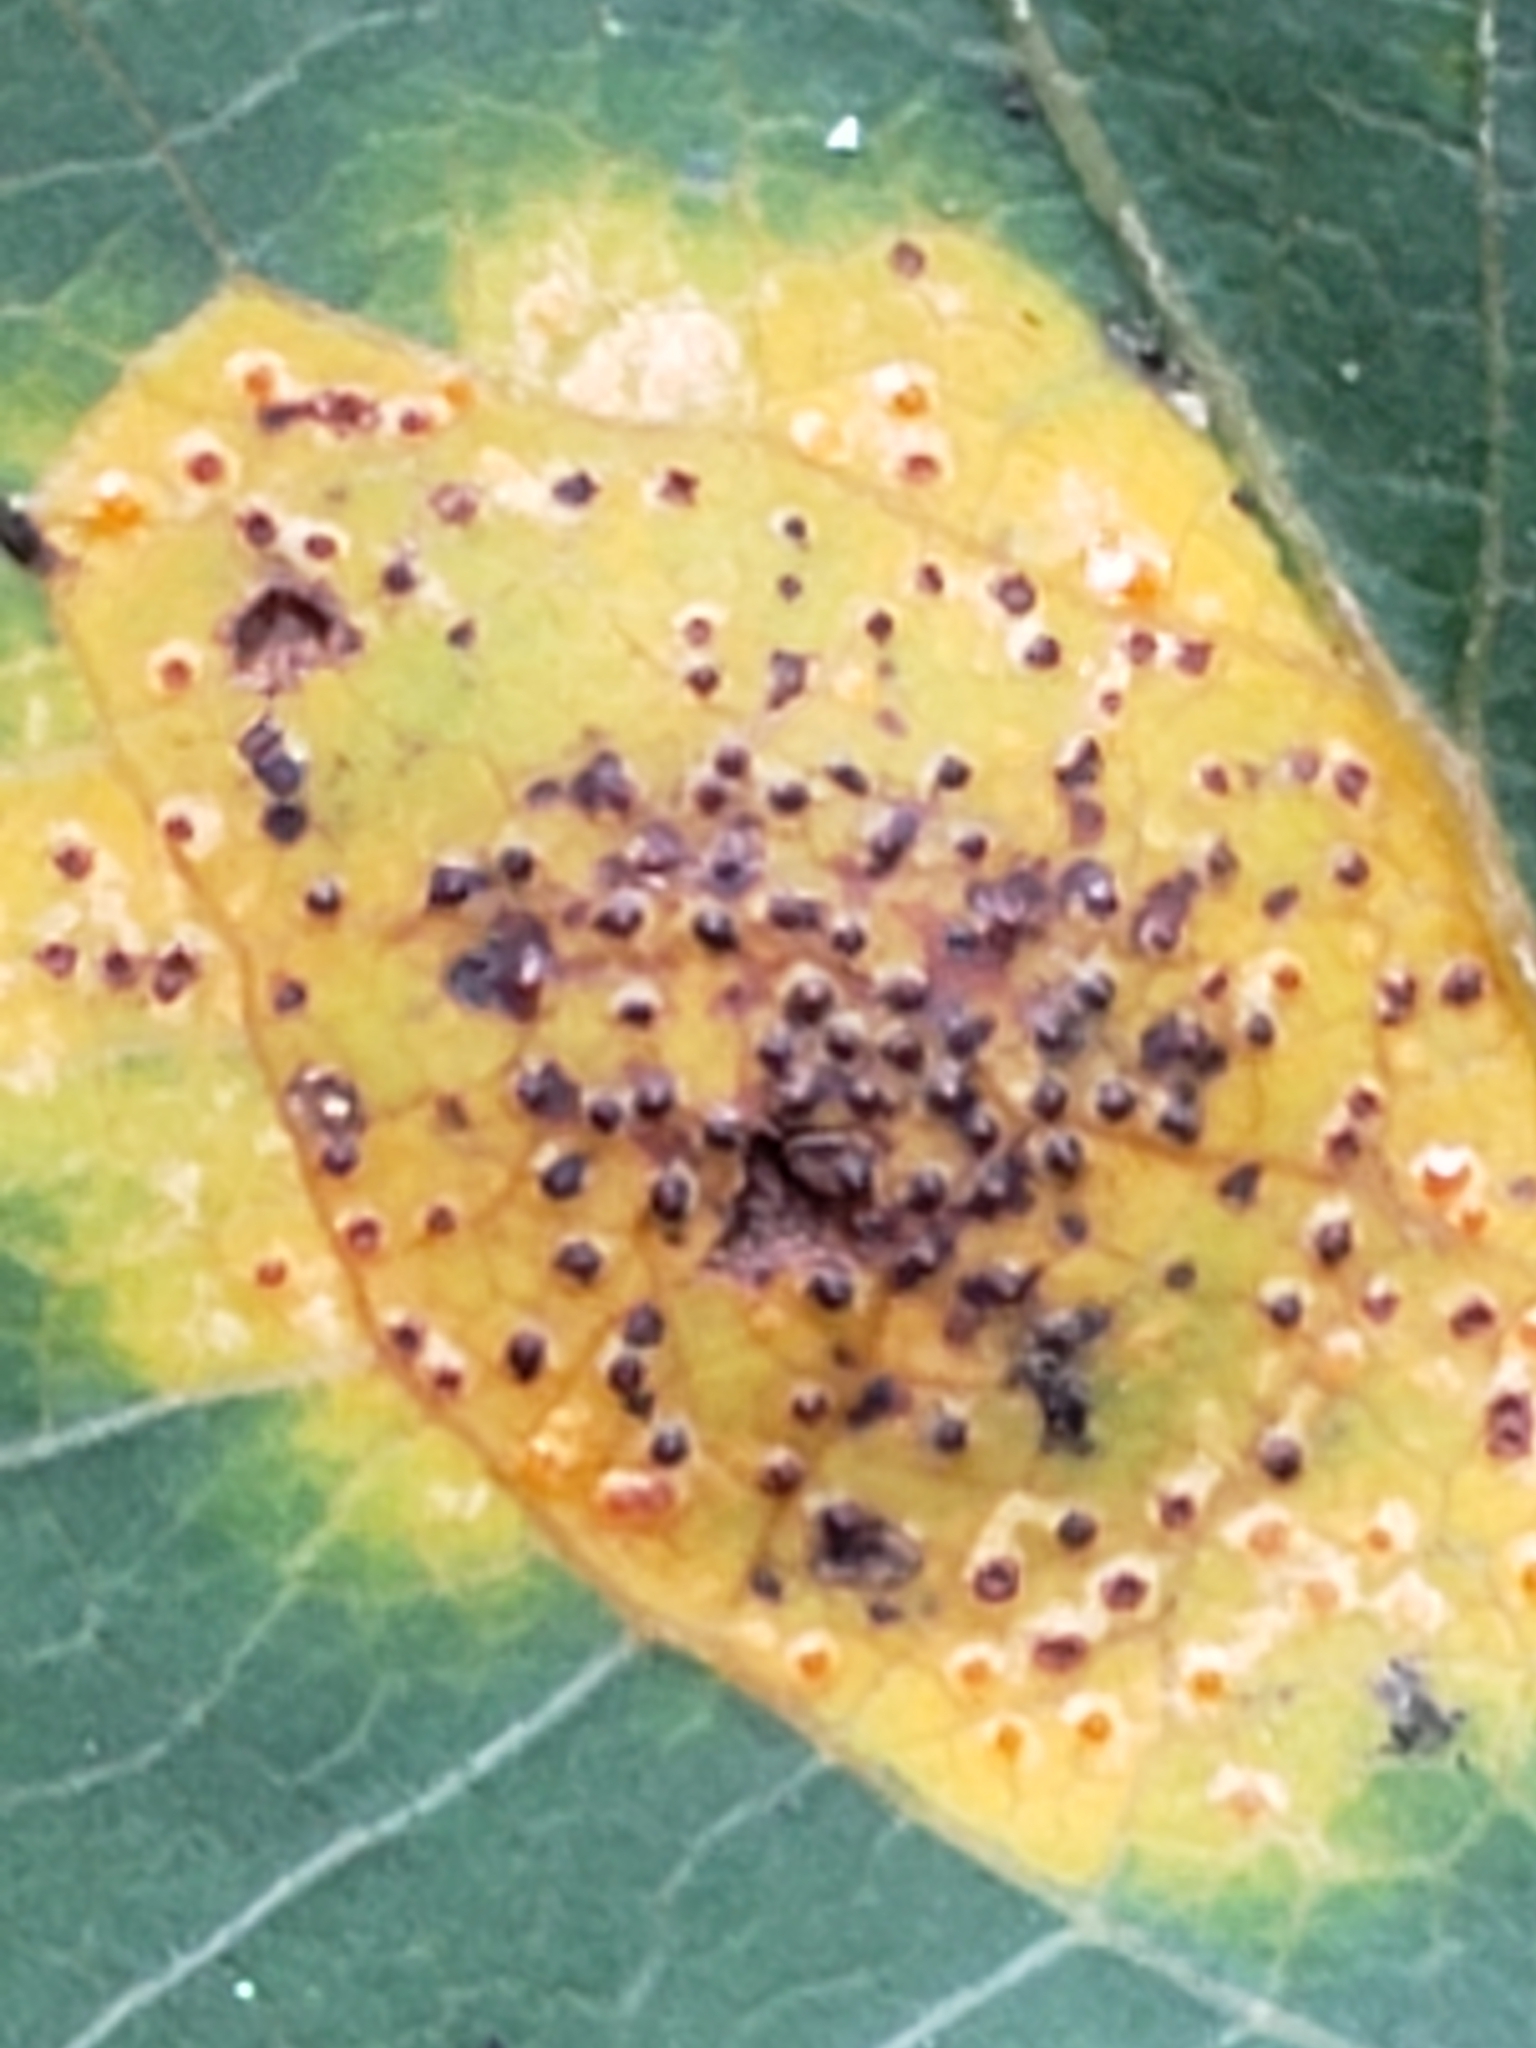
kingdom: Fungi
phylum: Basidiomycota
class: Pucciniomycetes
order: Pucciniales
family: Gymnosporangiaceae
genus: Gymnosporangium
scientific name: Gymnosporangium sabinae
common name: Pear trellis rust fungus
